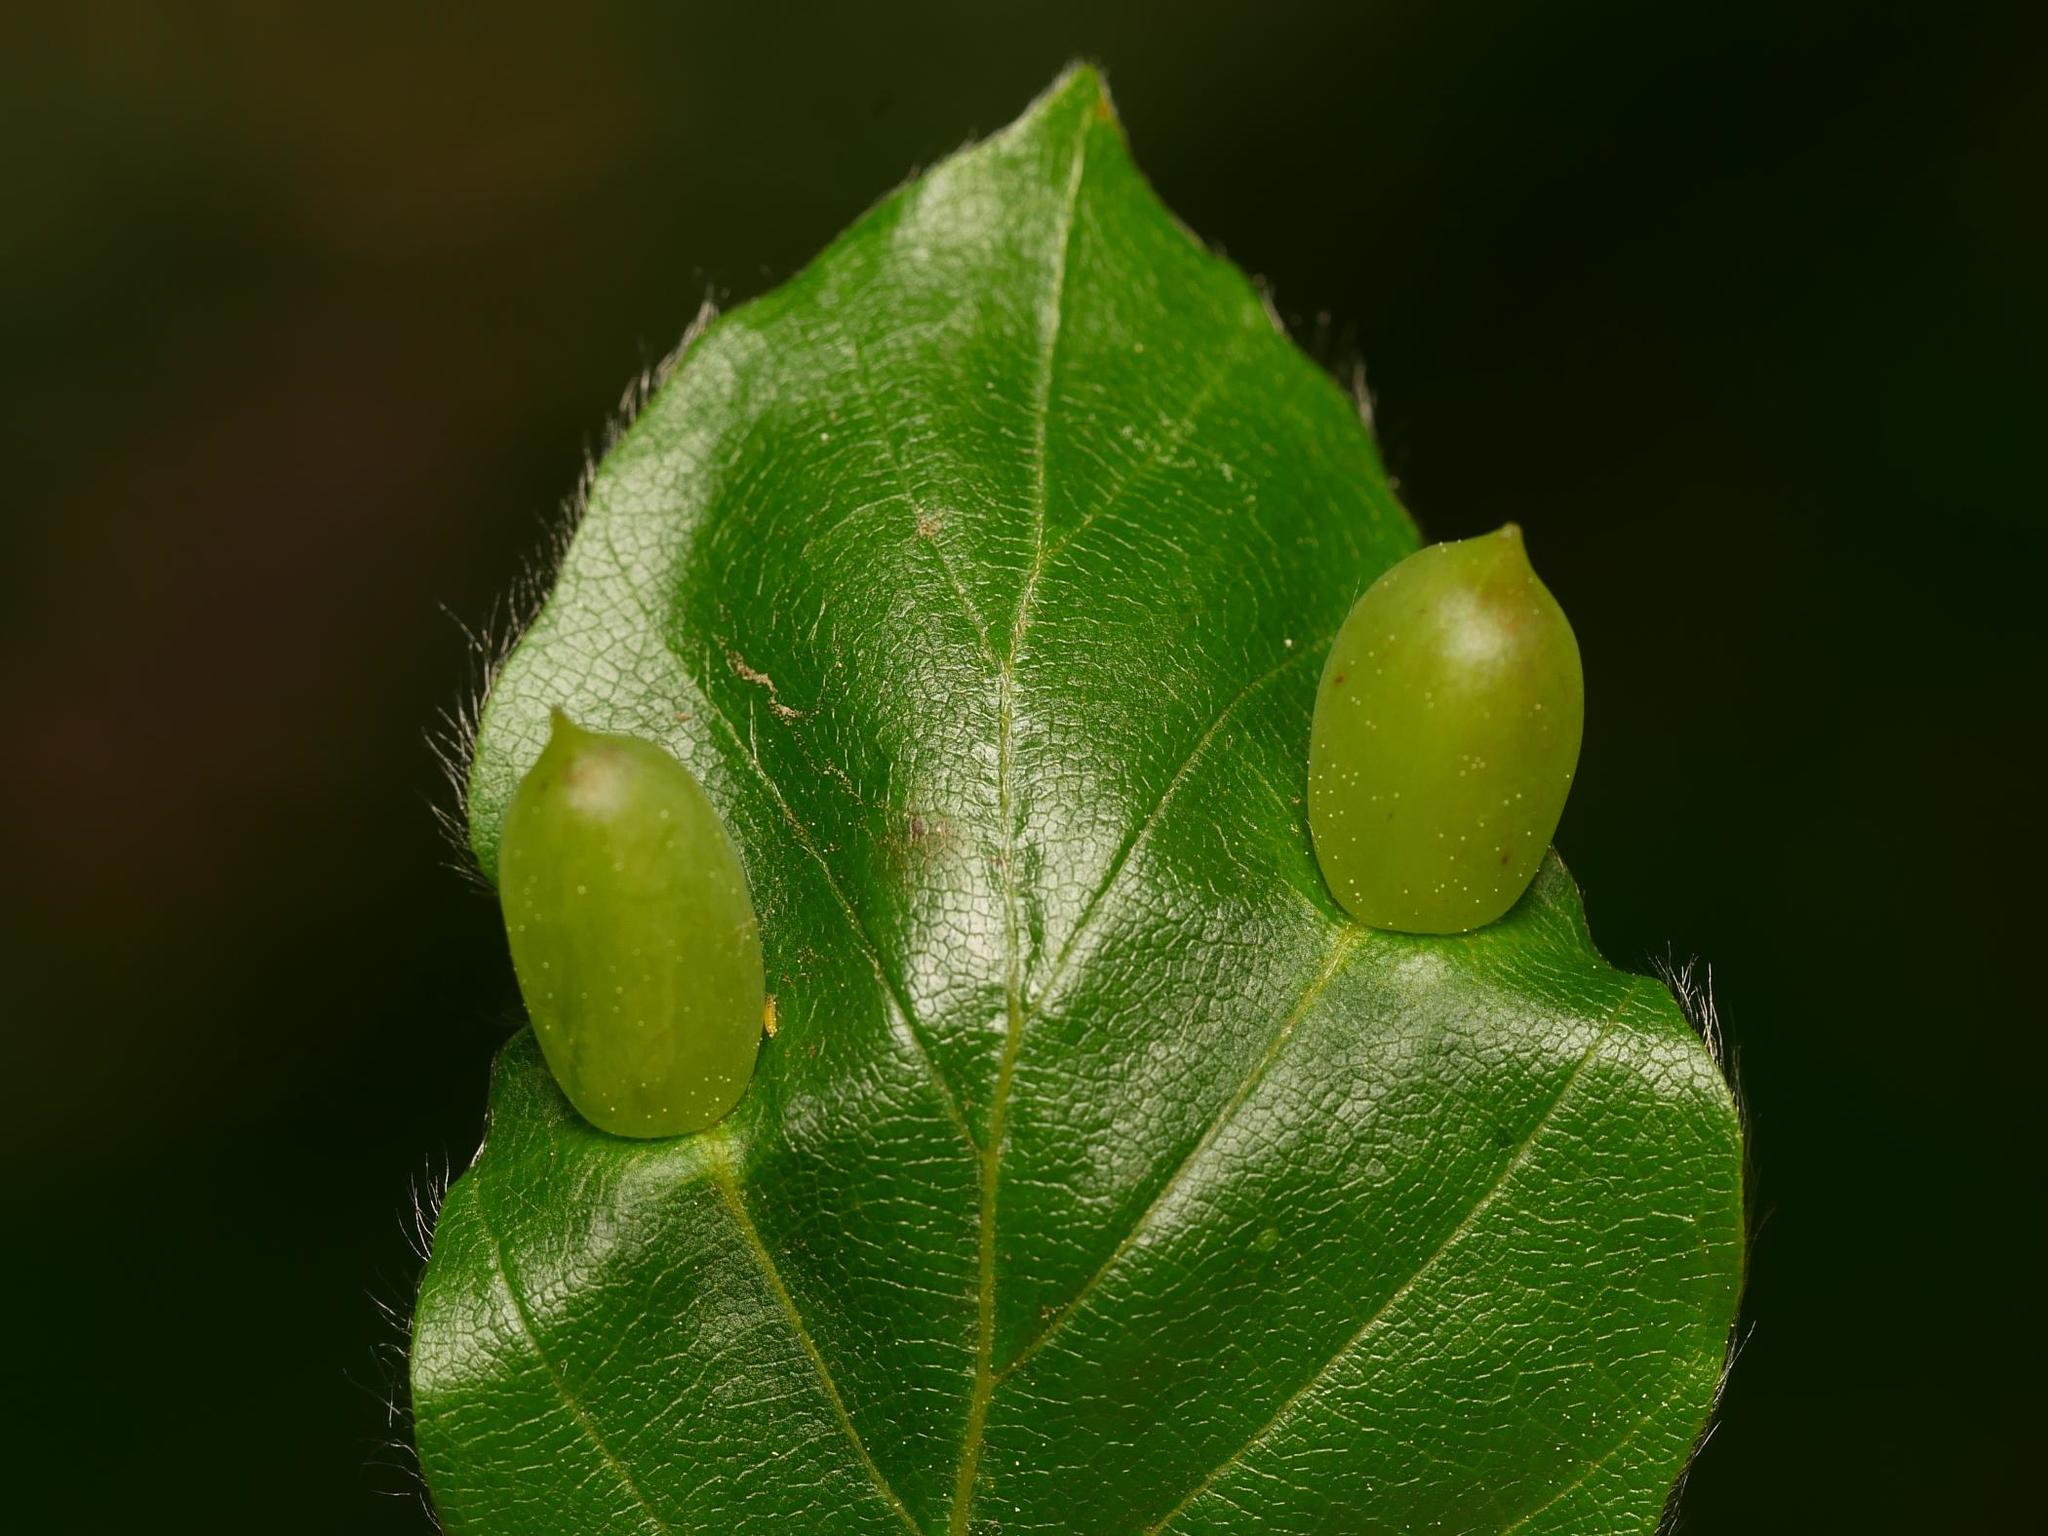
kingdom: Plantae
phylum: Tracheophyta
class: Magnoliopsida
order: Fagales
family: Fagaceae
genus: Fagus
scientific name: Fagus sylvatica
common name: Beech
